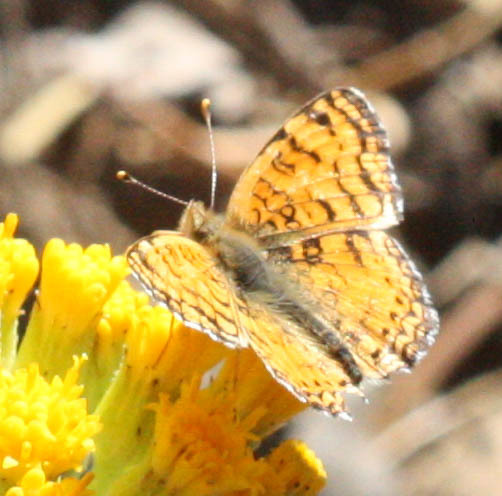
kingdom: Animalia
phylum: Arthropoda
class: Insecta
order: Lepidoptera
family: Nymphalidae
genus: Eresia
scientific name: Eresia aveyrona
